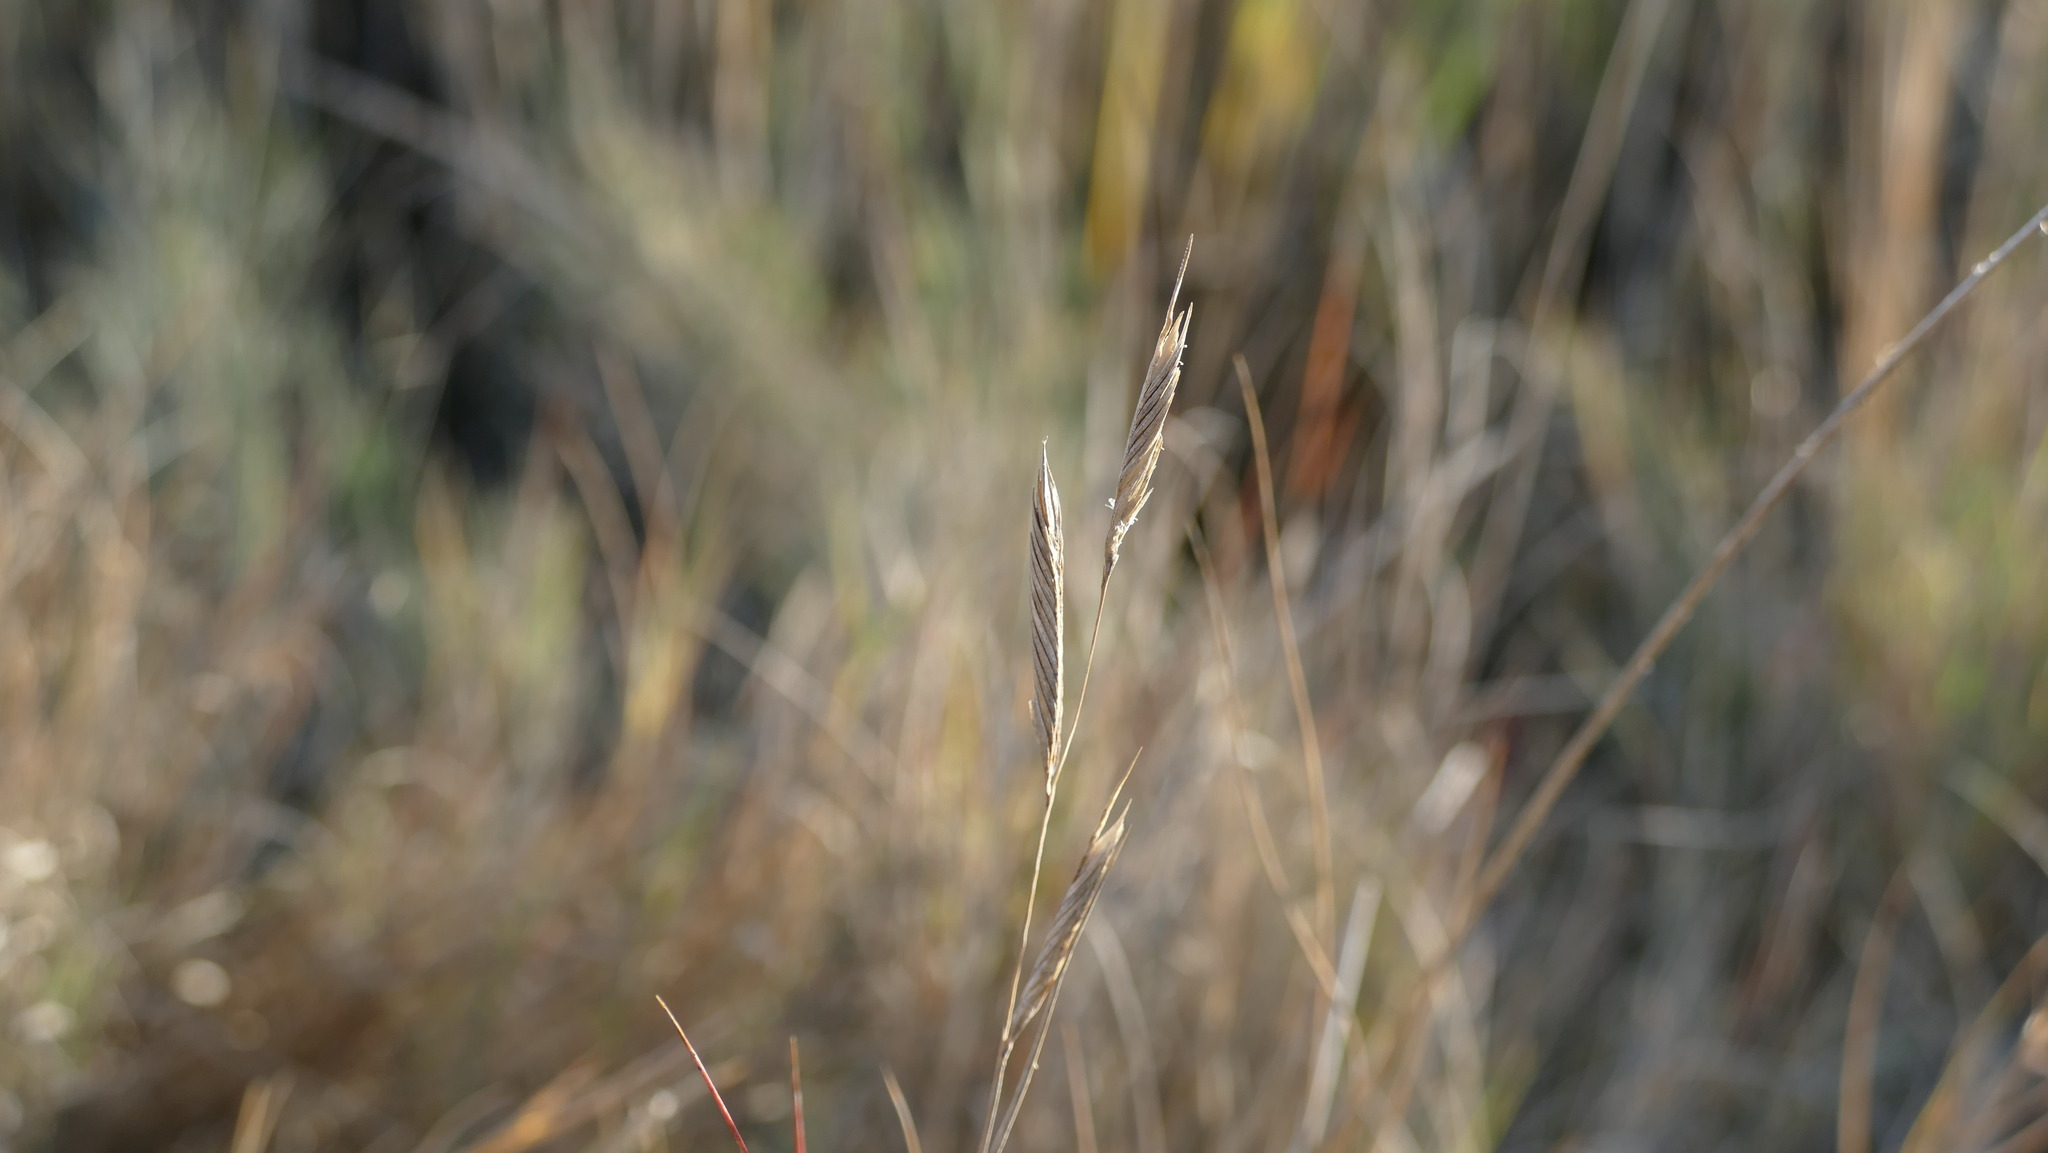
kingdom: Plantae
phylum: Tracheophyta
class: Liliopsida
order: Poales
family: Poaceae
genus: Sporobolus
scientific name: Sporobolus pumilus
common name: Highwater grass
